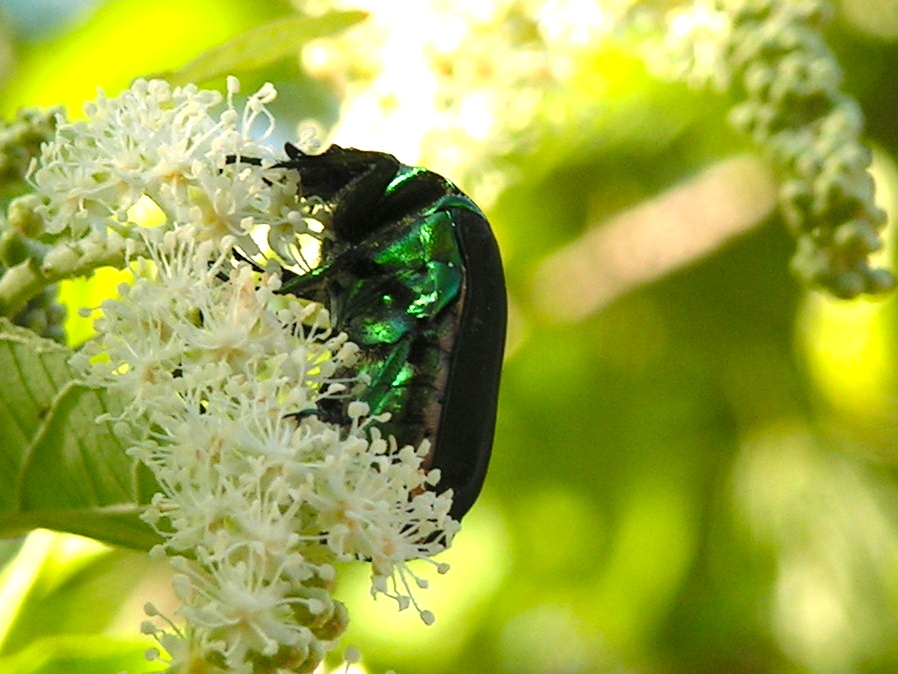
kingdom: Animalia
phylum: Arthropoda
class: Insecta
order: Coleoptera
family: Scarabaeidae
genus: Cotinis
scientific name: Cotinis
